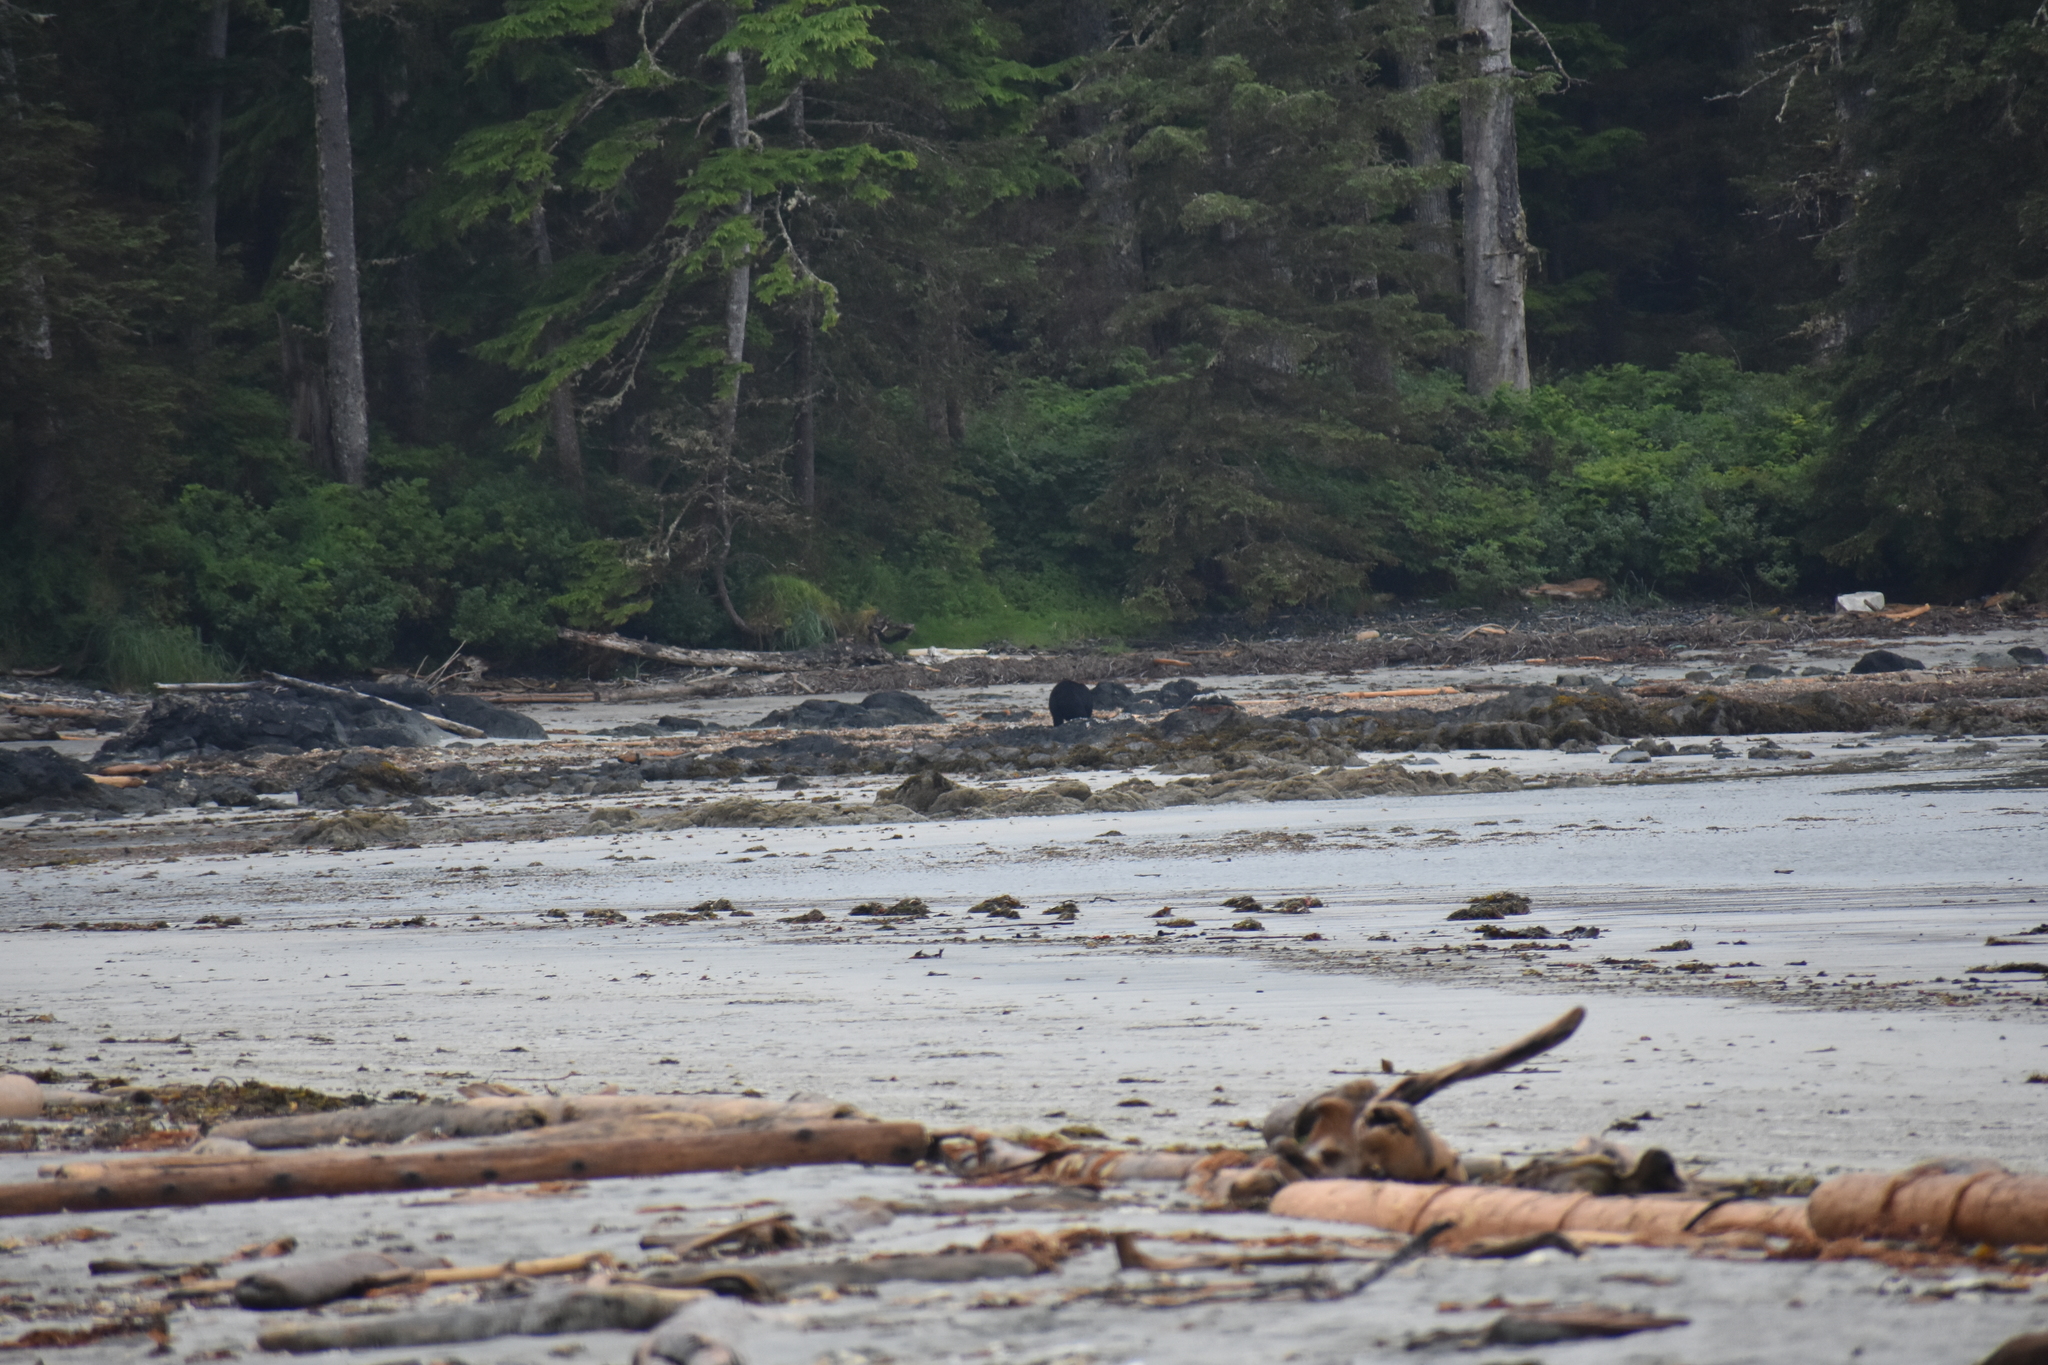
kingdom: Animalia
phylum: Chordata
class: Mammalia
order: Carnivora
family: Ursidae
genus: Ursus
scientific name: Ursus americanus
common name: American black bear
